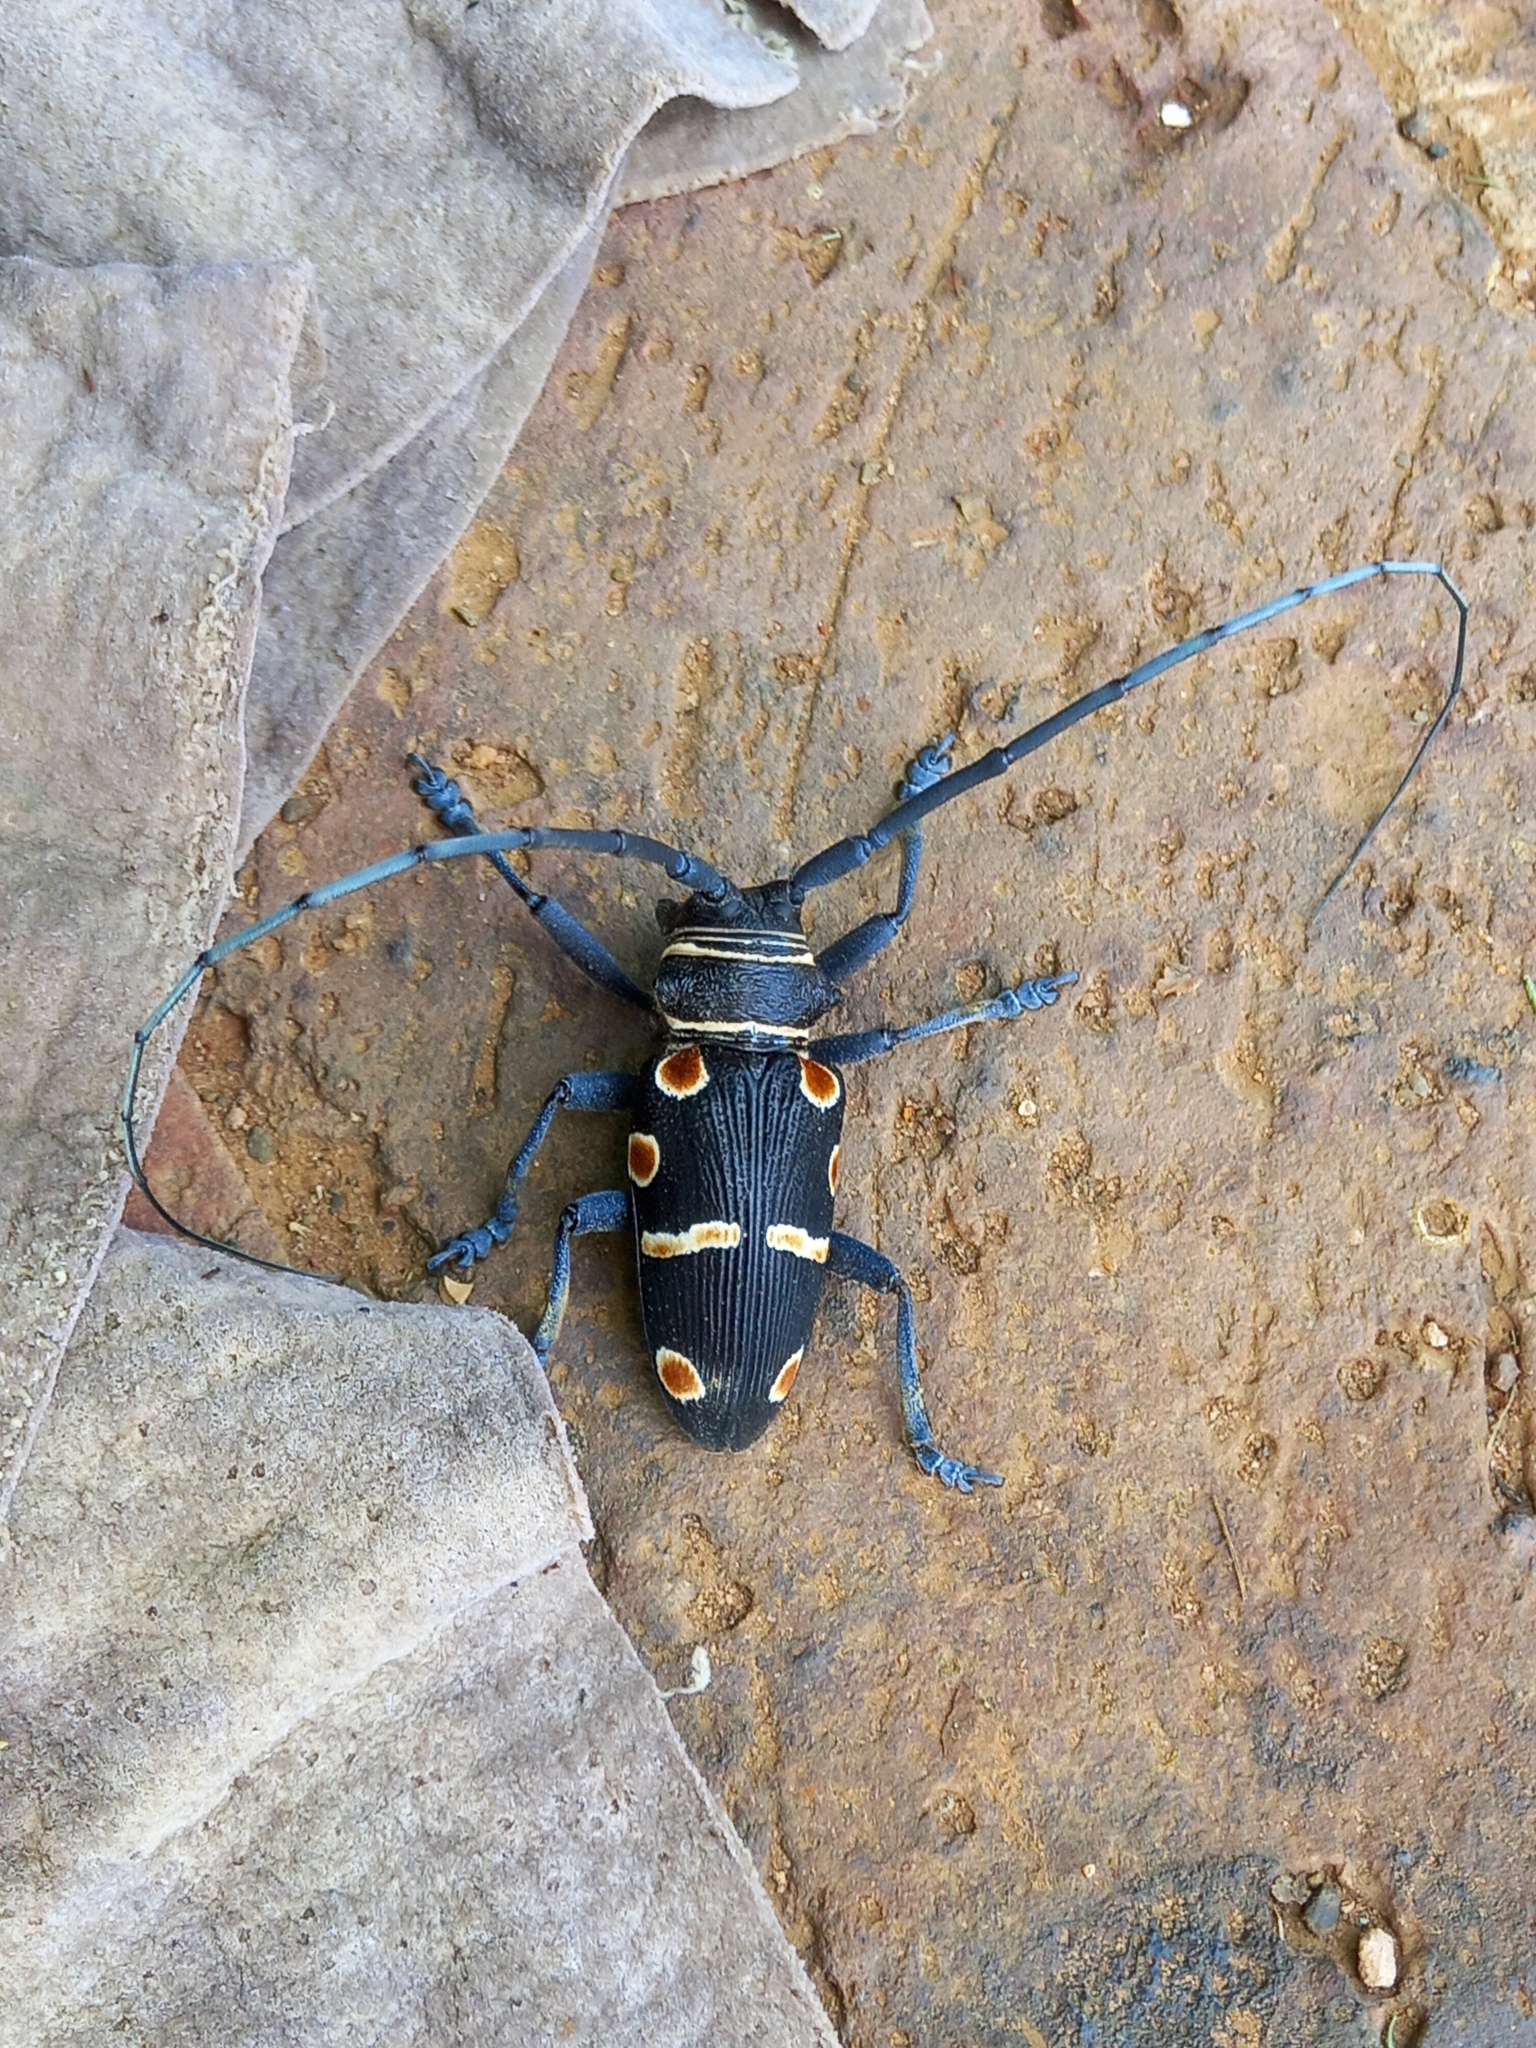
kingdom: Animalia
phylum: Arthropoda
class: Insecta
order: Coleoptera
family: Cerambycidae
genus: Zographus
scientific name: Zographus oculator
